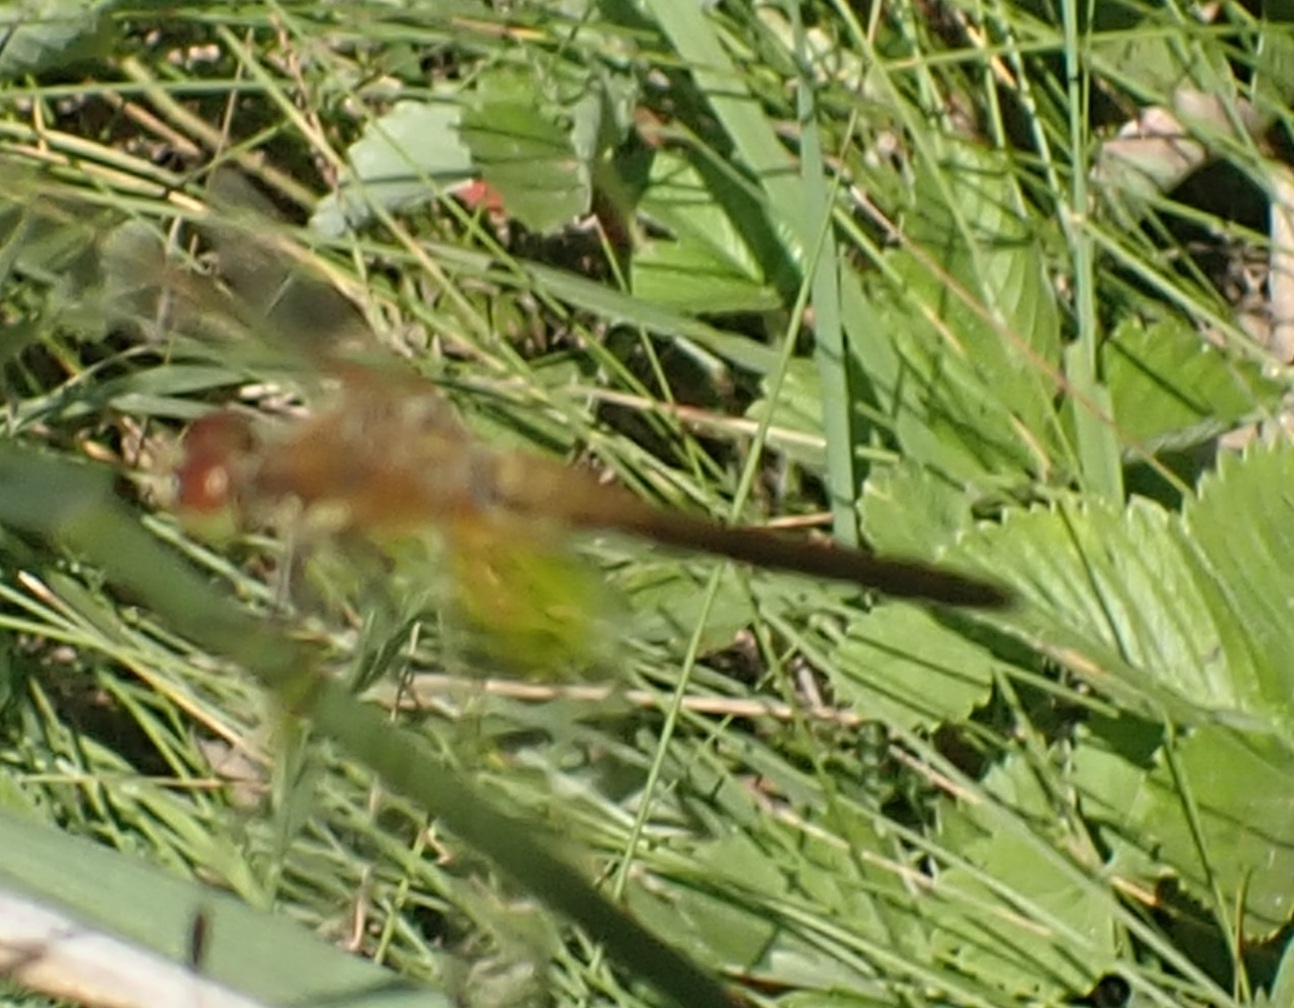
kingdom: Animalia
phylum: Arthropoda
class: Insecta
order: Odonata
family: Libellulidae
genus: Sympetrum
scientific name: Sympetrum flaveolum
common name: Yellow-winged darter
